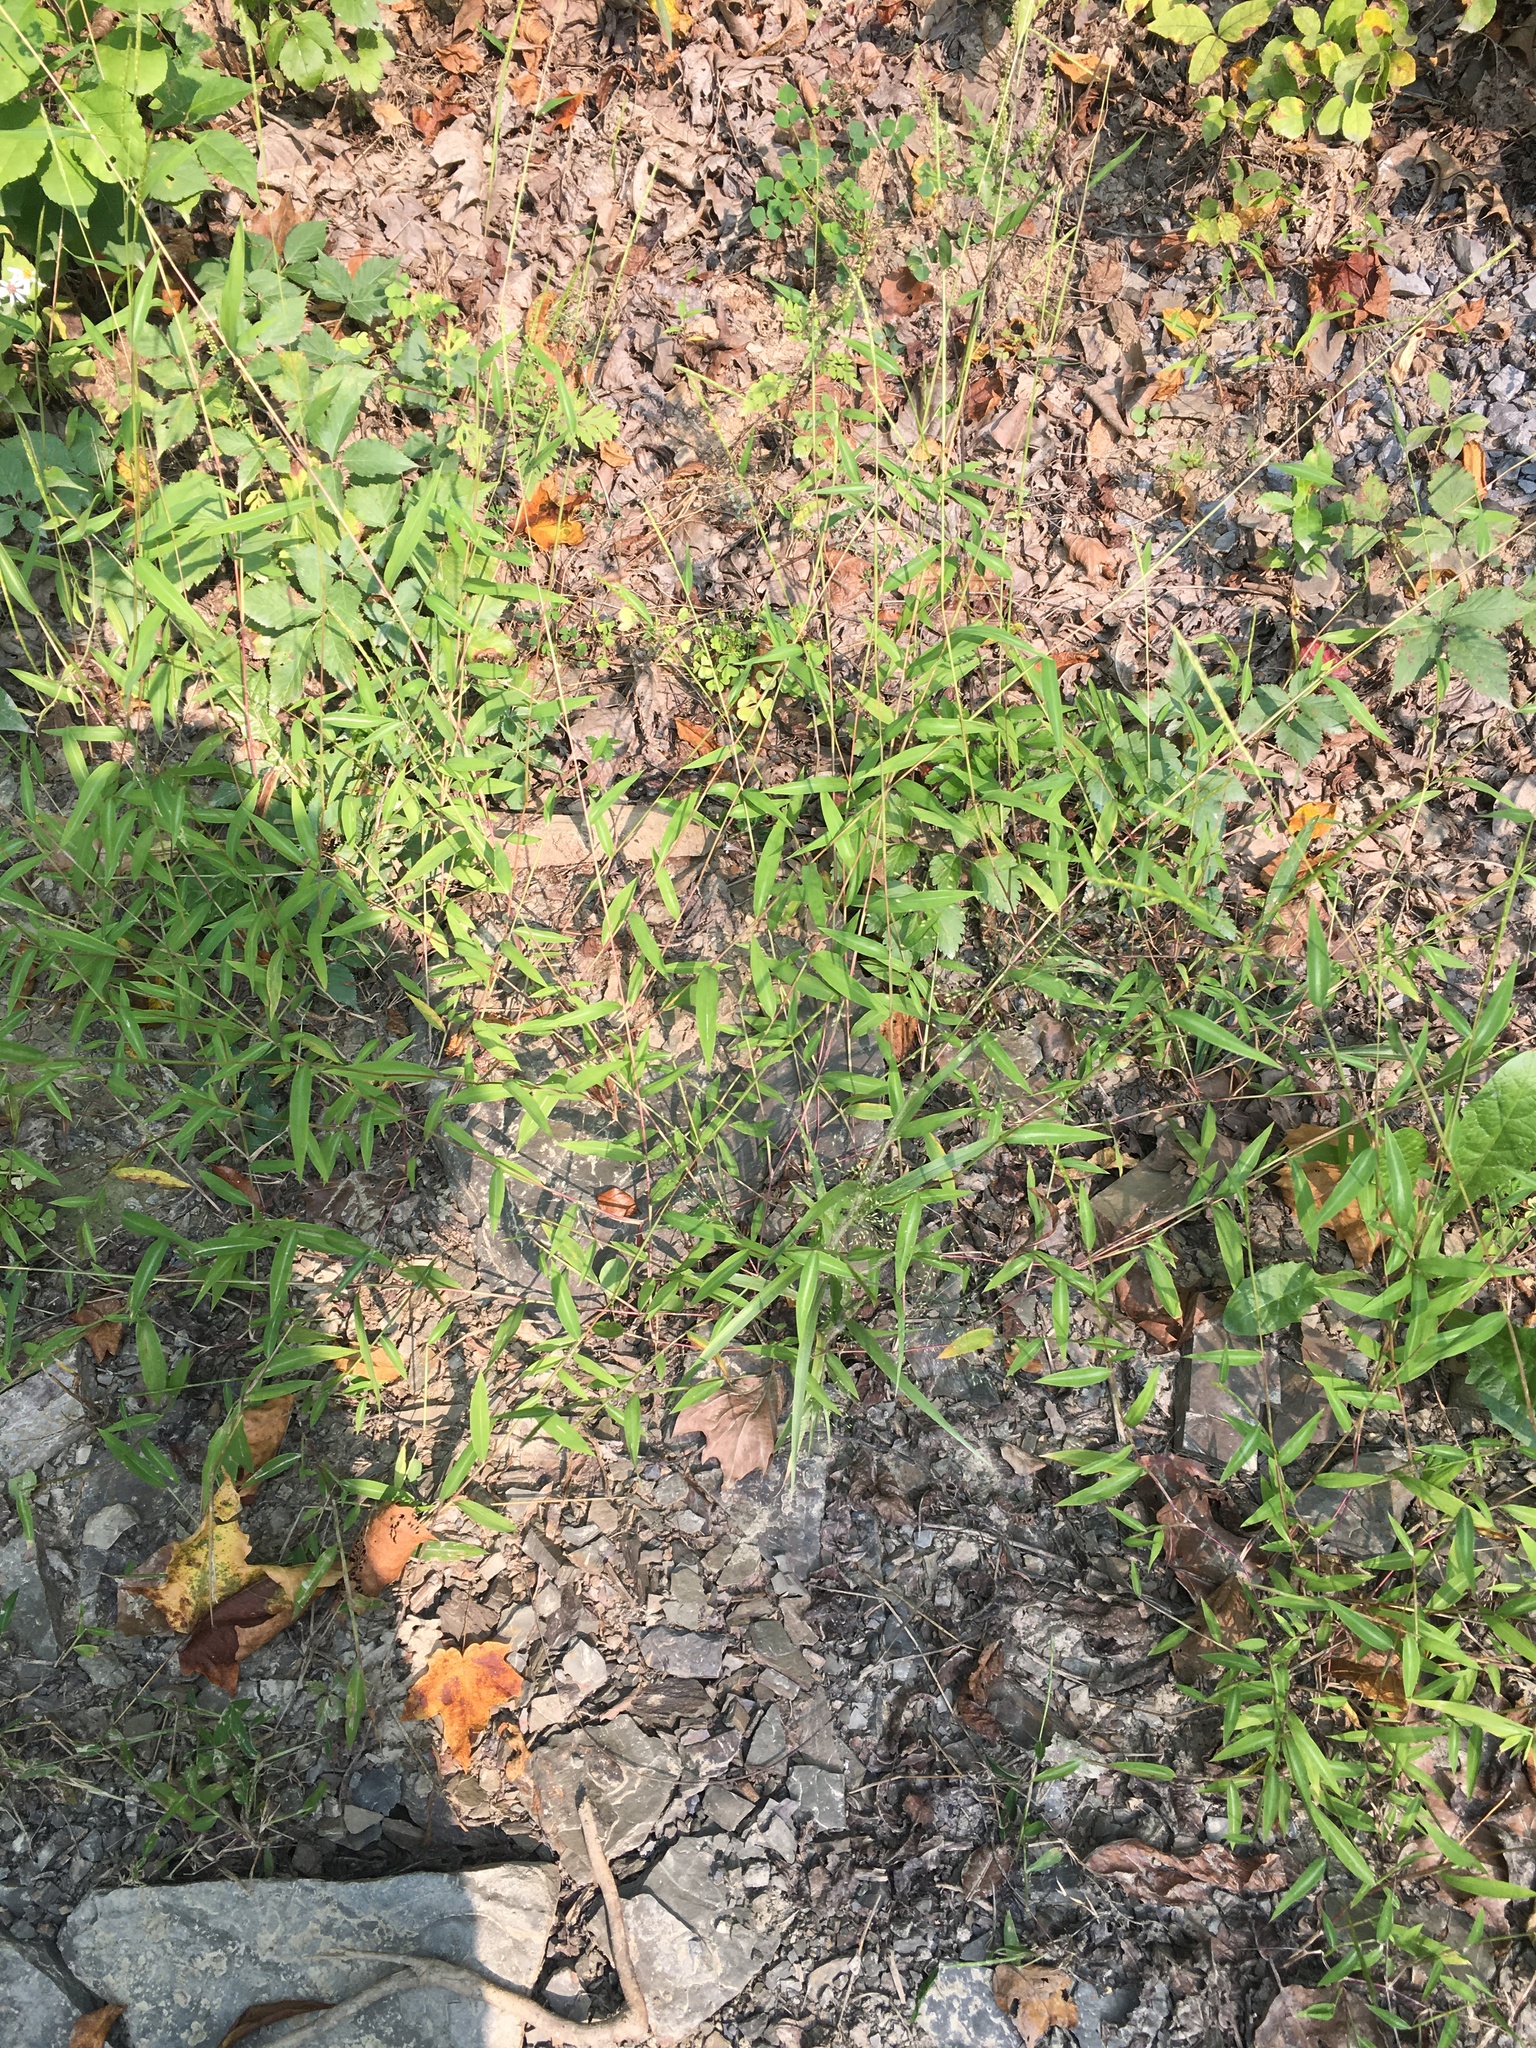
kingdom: Plantae
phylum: Tracheophyta
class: Liliopsida
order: Poales
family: Poaceae
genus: Microstegium
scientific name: Microstegium vimineum
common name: Japanese stiltgrass
